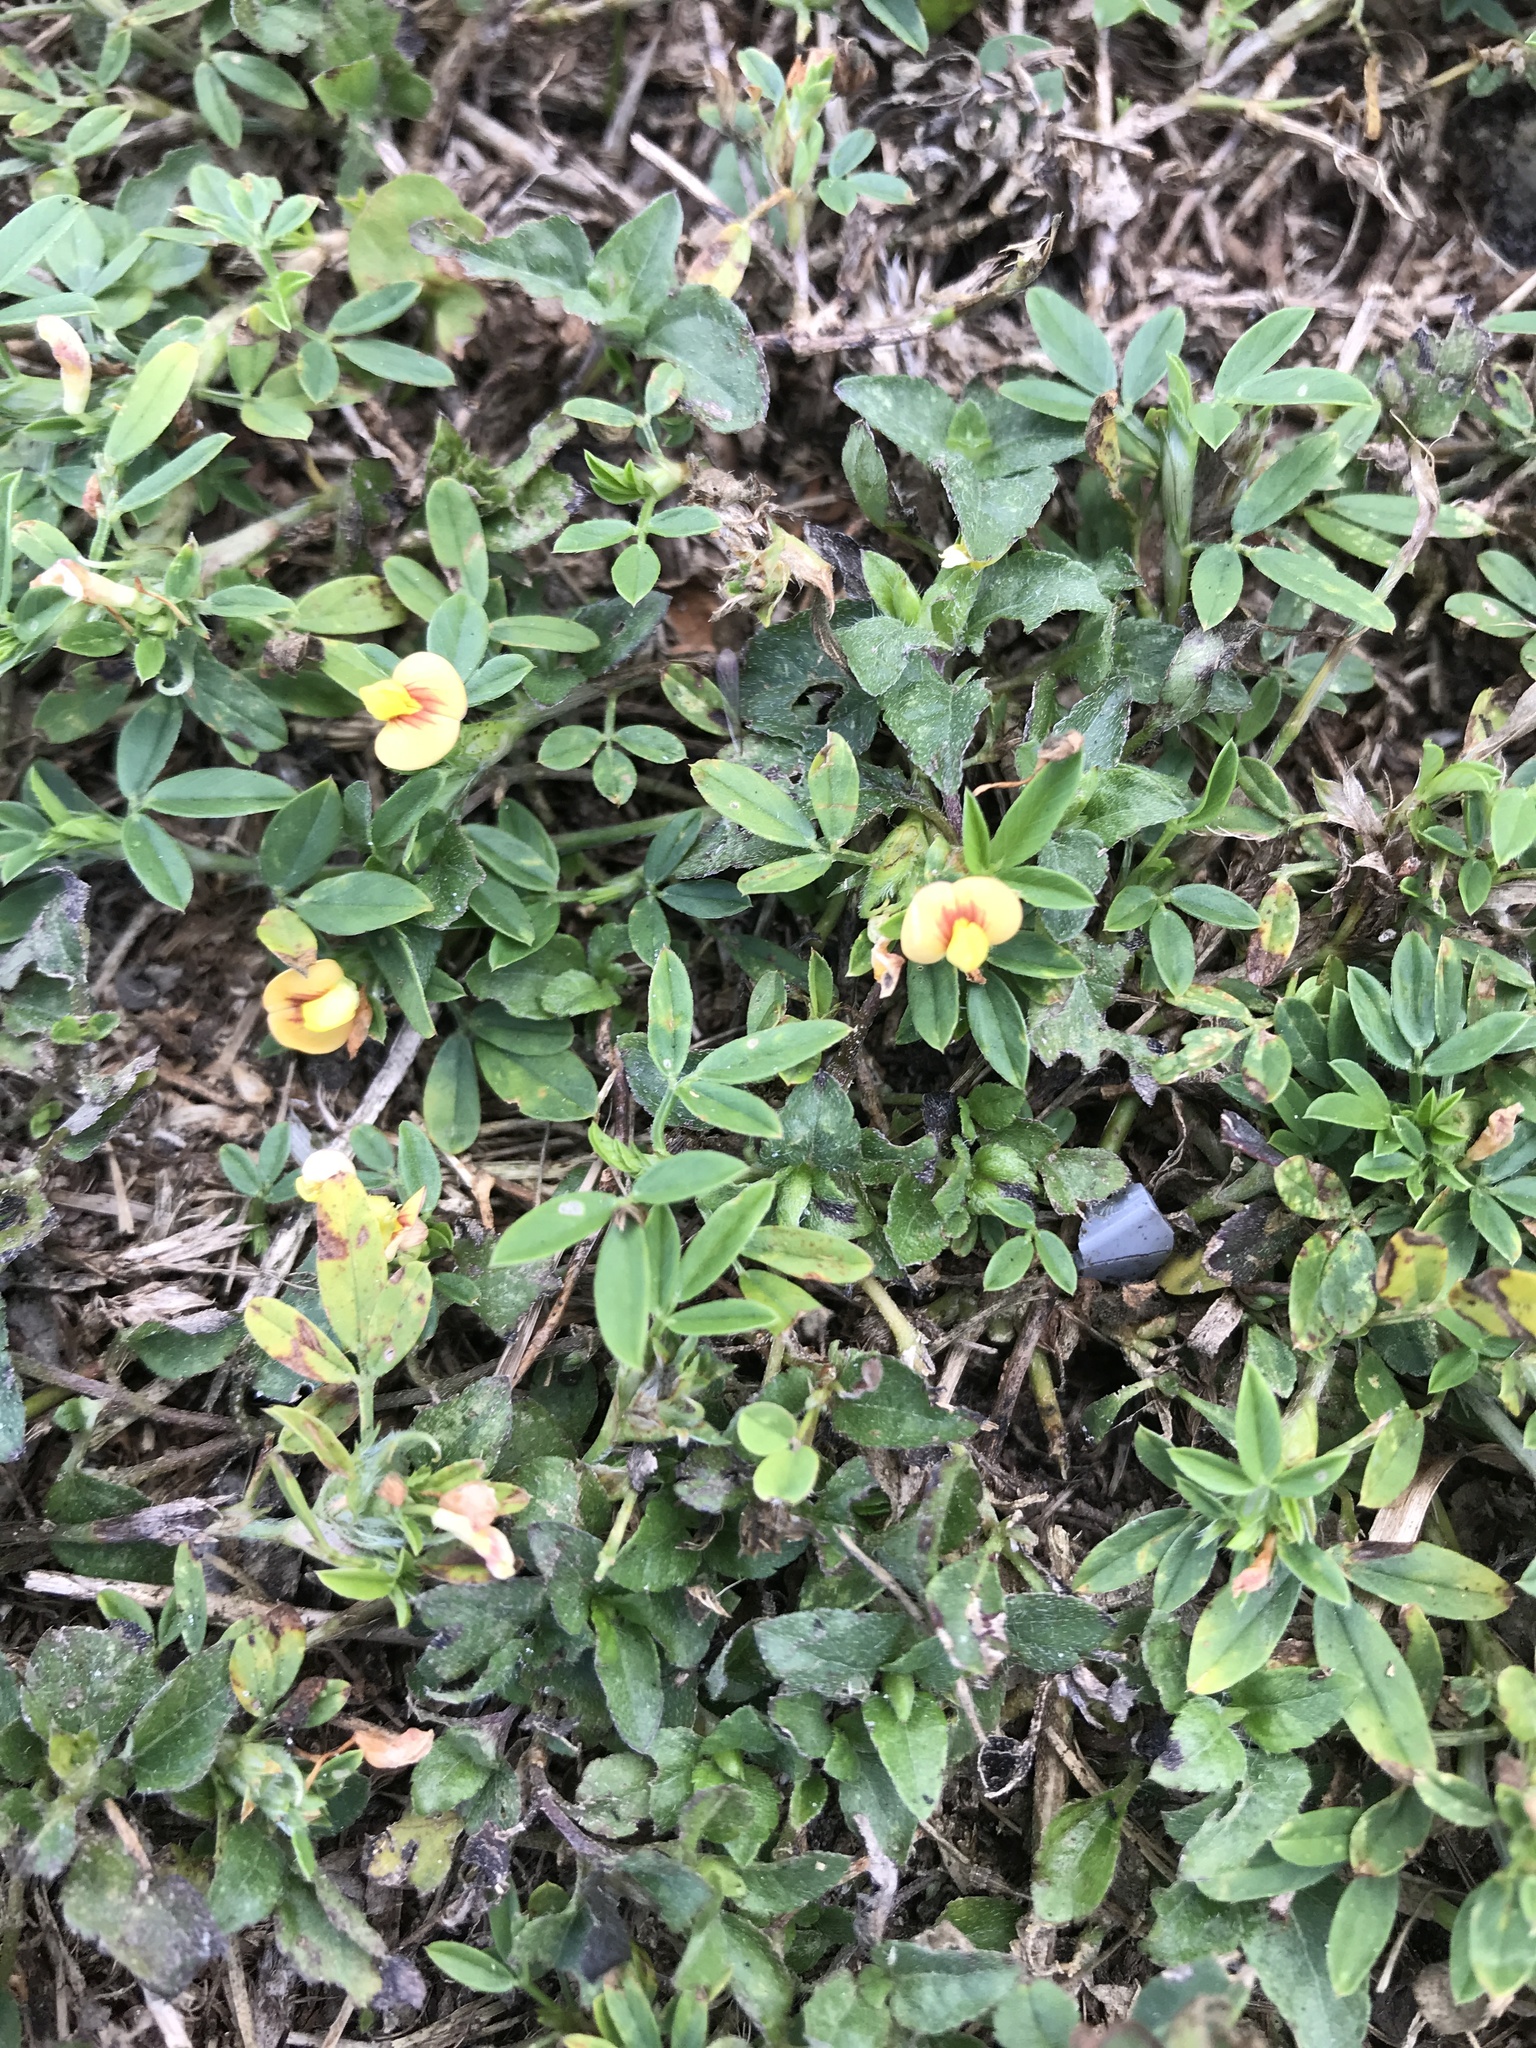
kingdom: Plantae
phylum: Tracheophyta
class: Magnoliopsida
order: Fabales
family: Fabaceae
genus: Stylosanthes
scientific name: Stylosanthes hamata
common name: Cheesytoes
